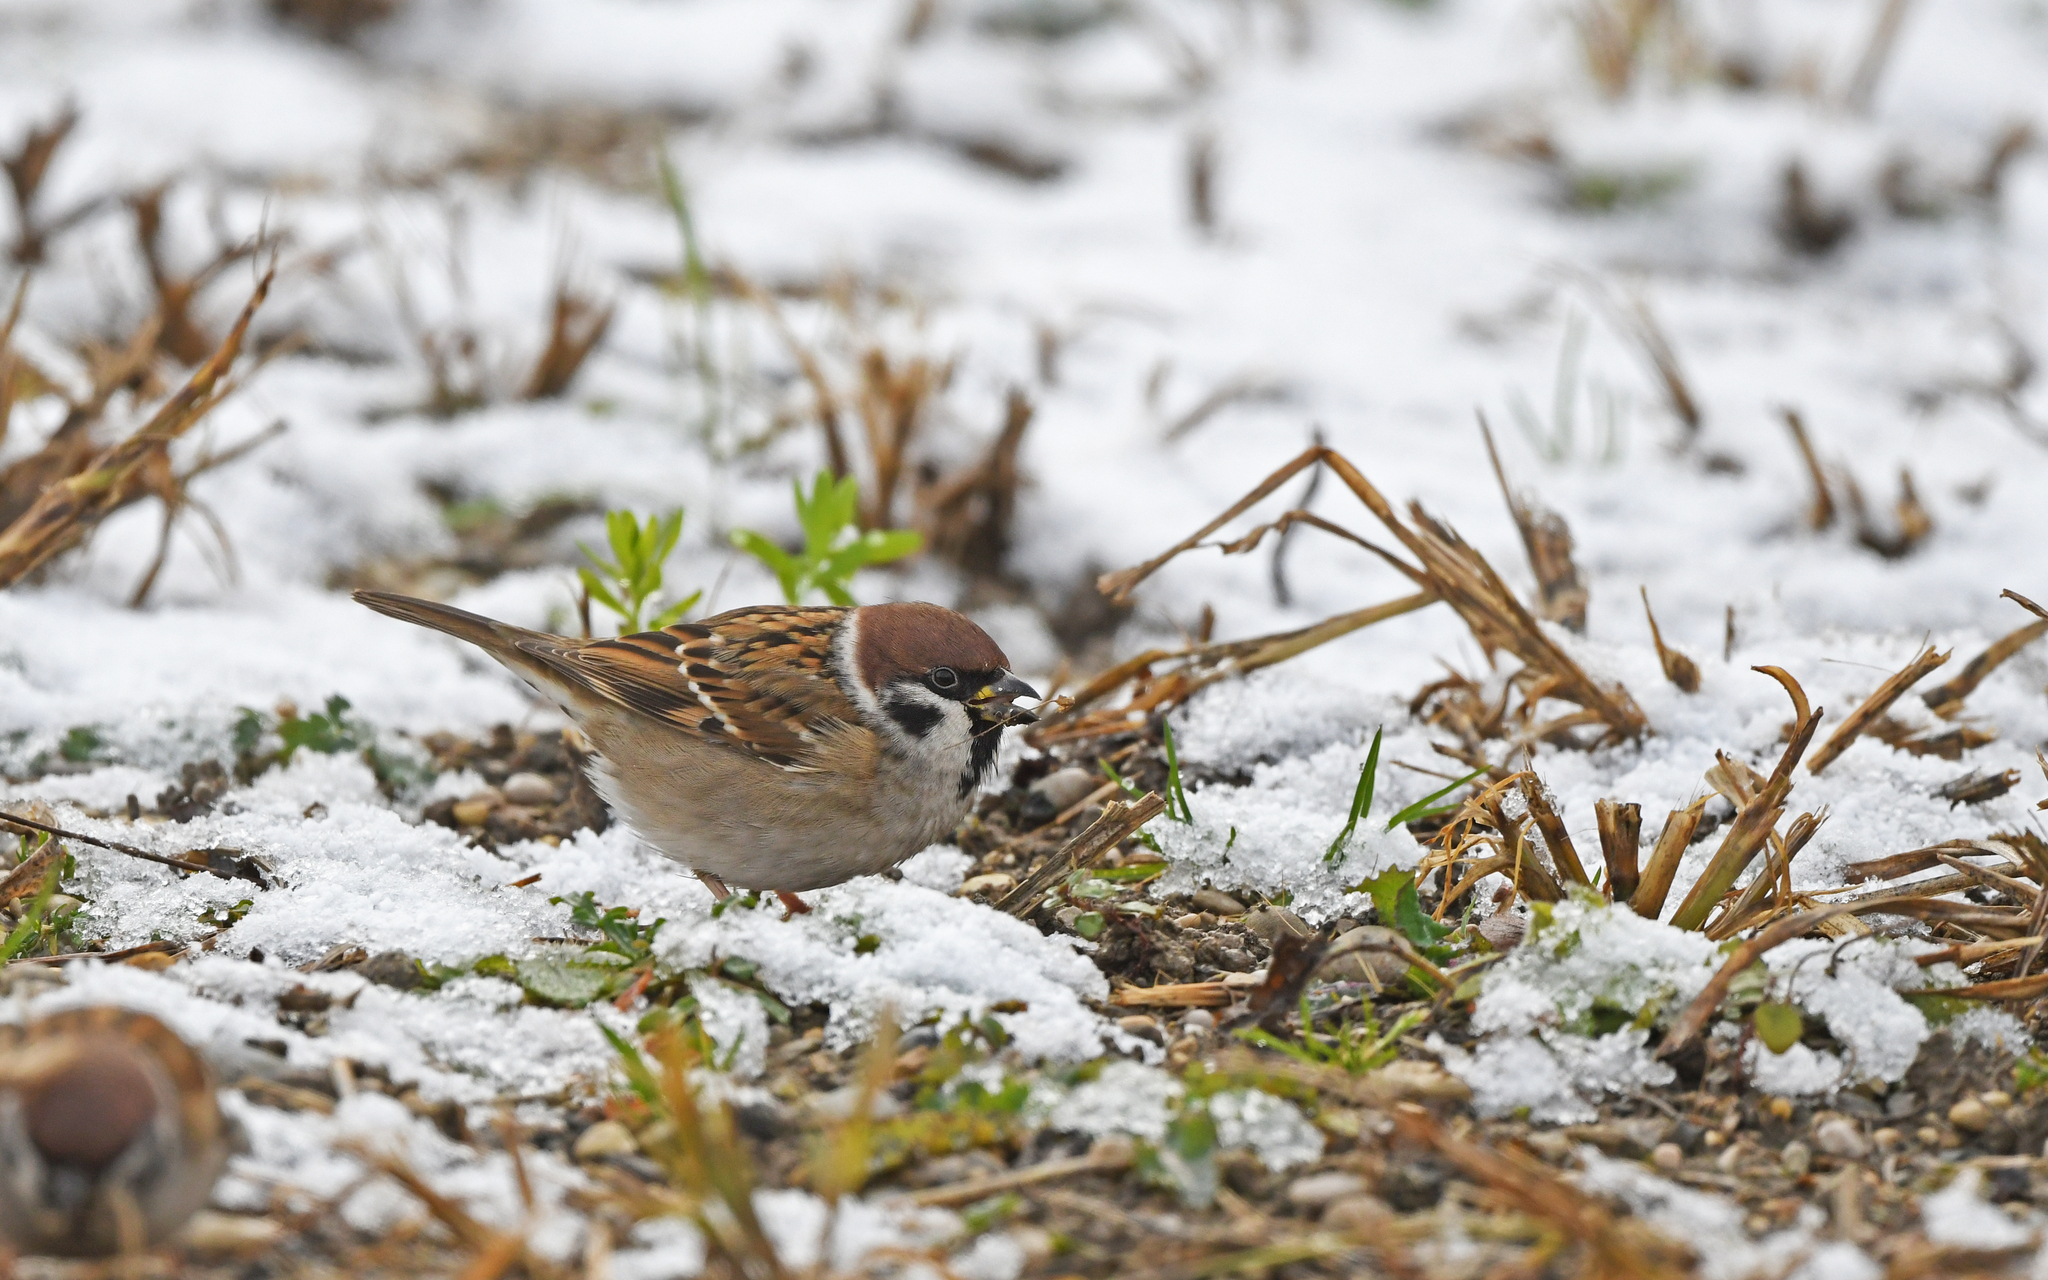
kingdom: Animalia
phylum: Chordata
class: Aves
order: Passeriformes
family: Passeridae
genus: Passer
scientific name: Passer montanus
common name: Eurasian tree sparrow
